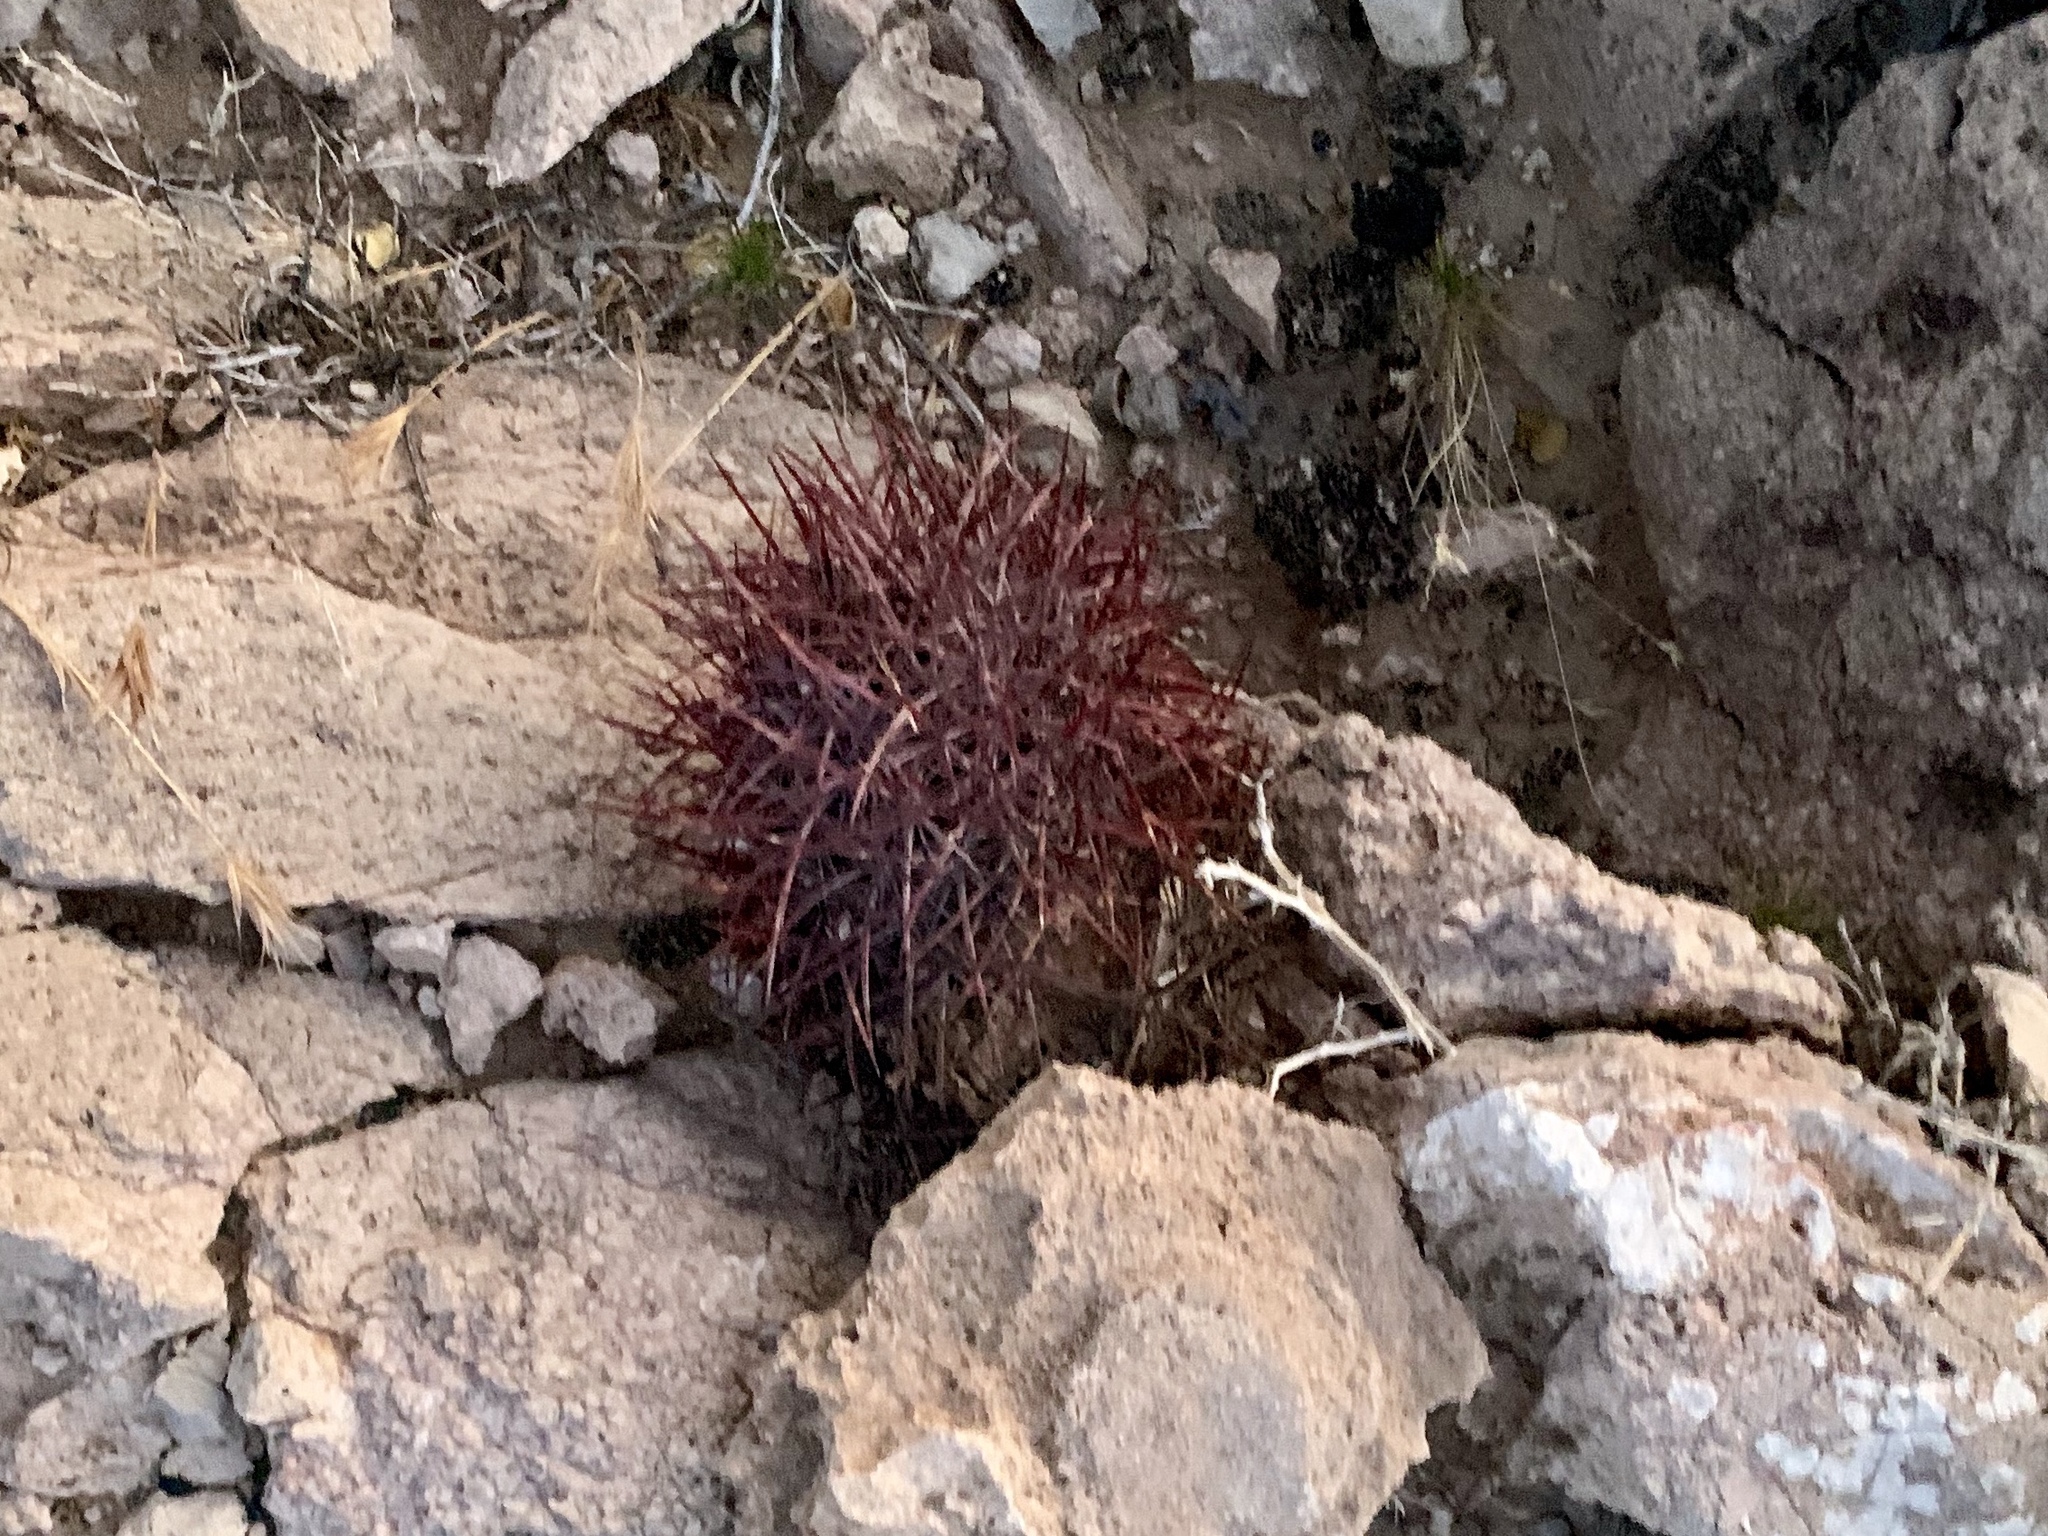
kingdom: Plantae
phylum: Tracheophyta
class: Magnoliopsida
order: Caryophyllales
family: Cactaceae
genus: Sclerocactus
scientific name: Sclerocactus johnsonii
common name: Eight-spine fishhook cactus
